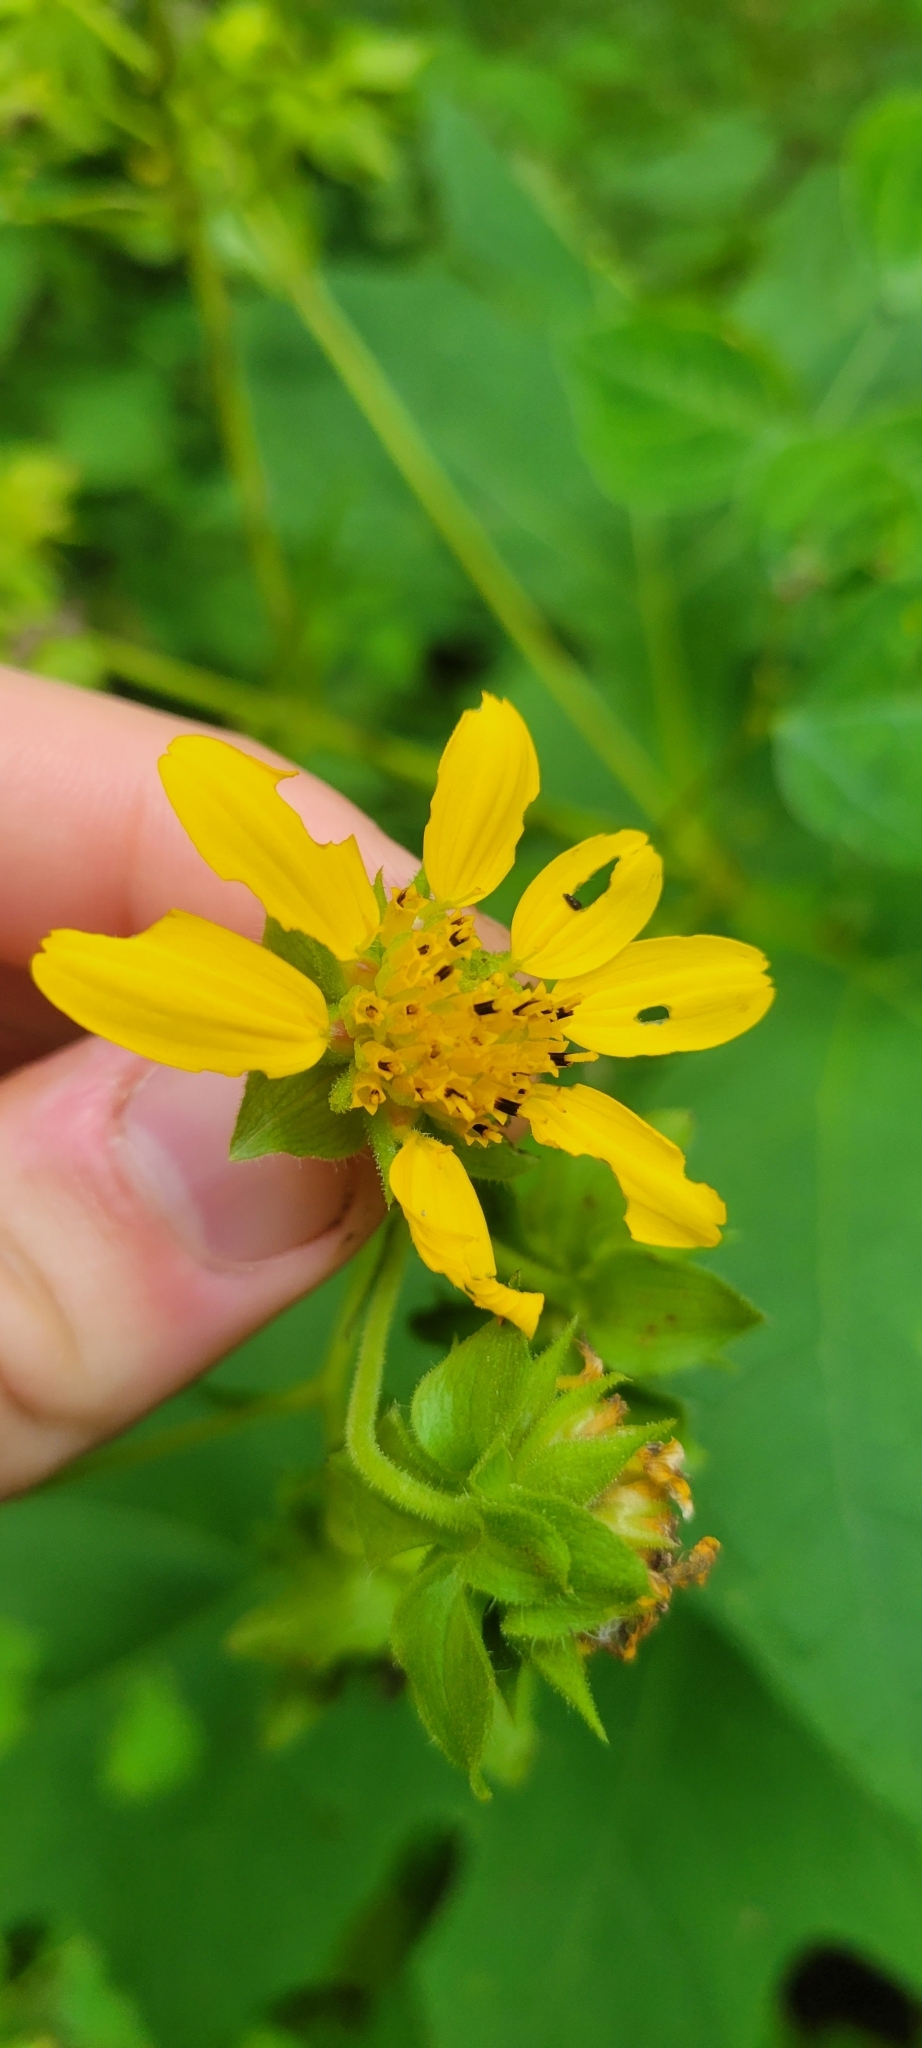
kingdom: Plantae
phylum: Tracheophyta
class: Magnoliopsida
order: Asterales
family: Asteraceae
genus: Smallanthus
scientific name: Smallanthus uvedalia
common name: Bear's-foot
